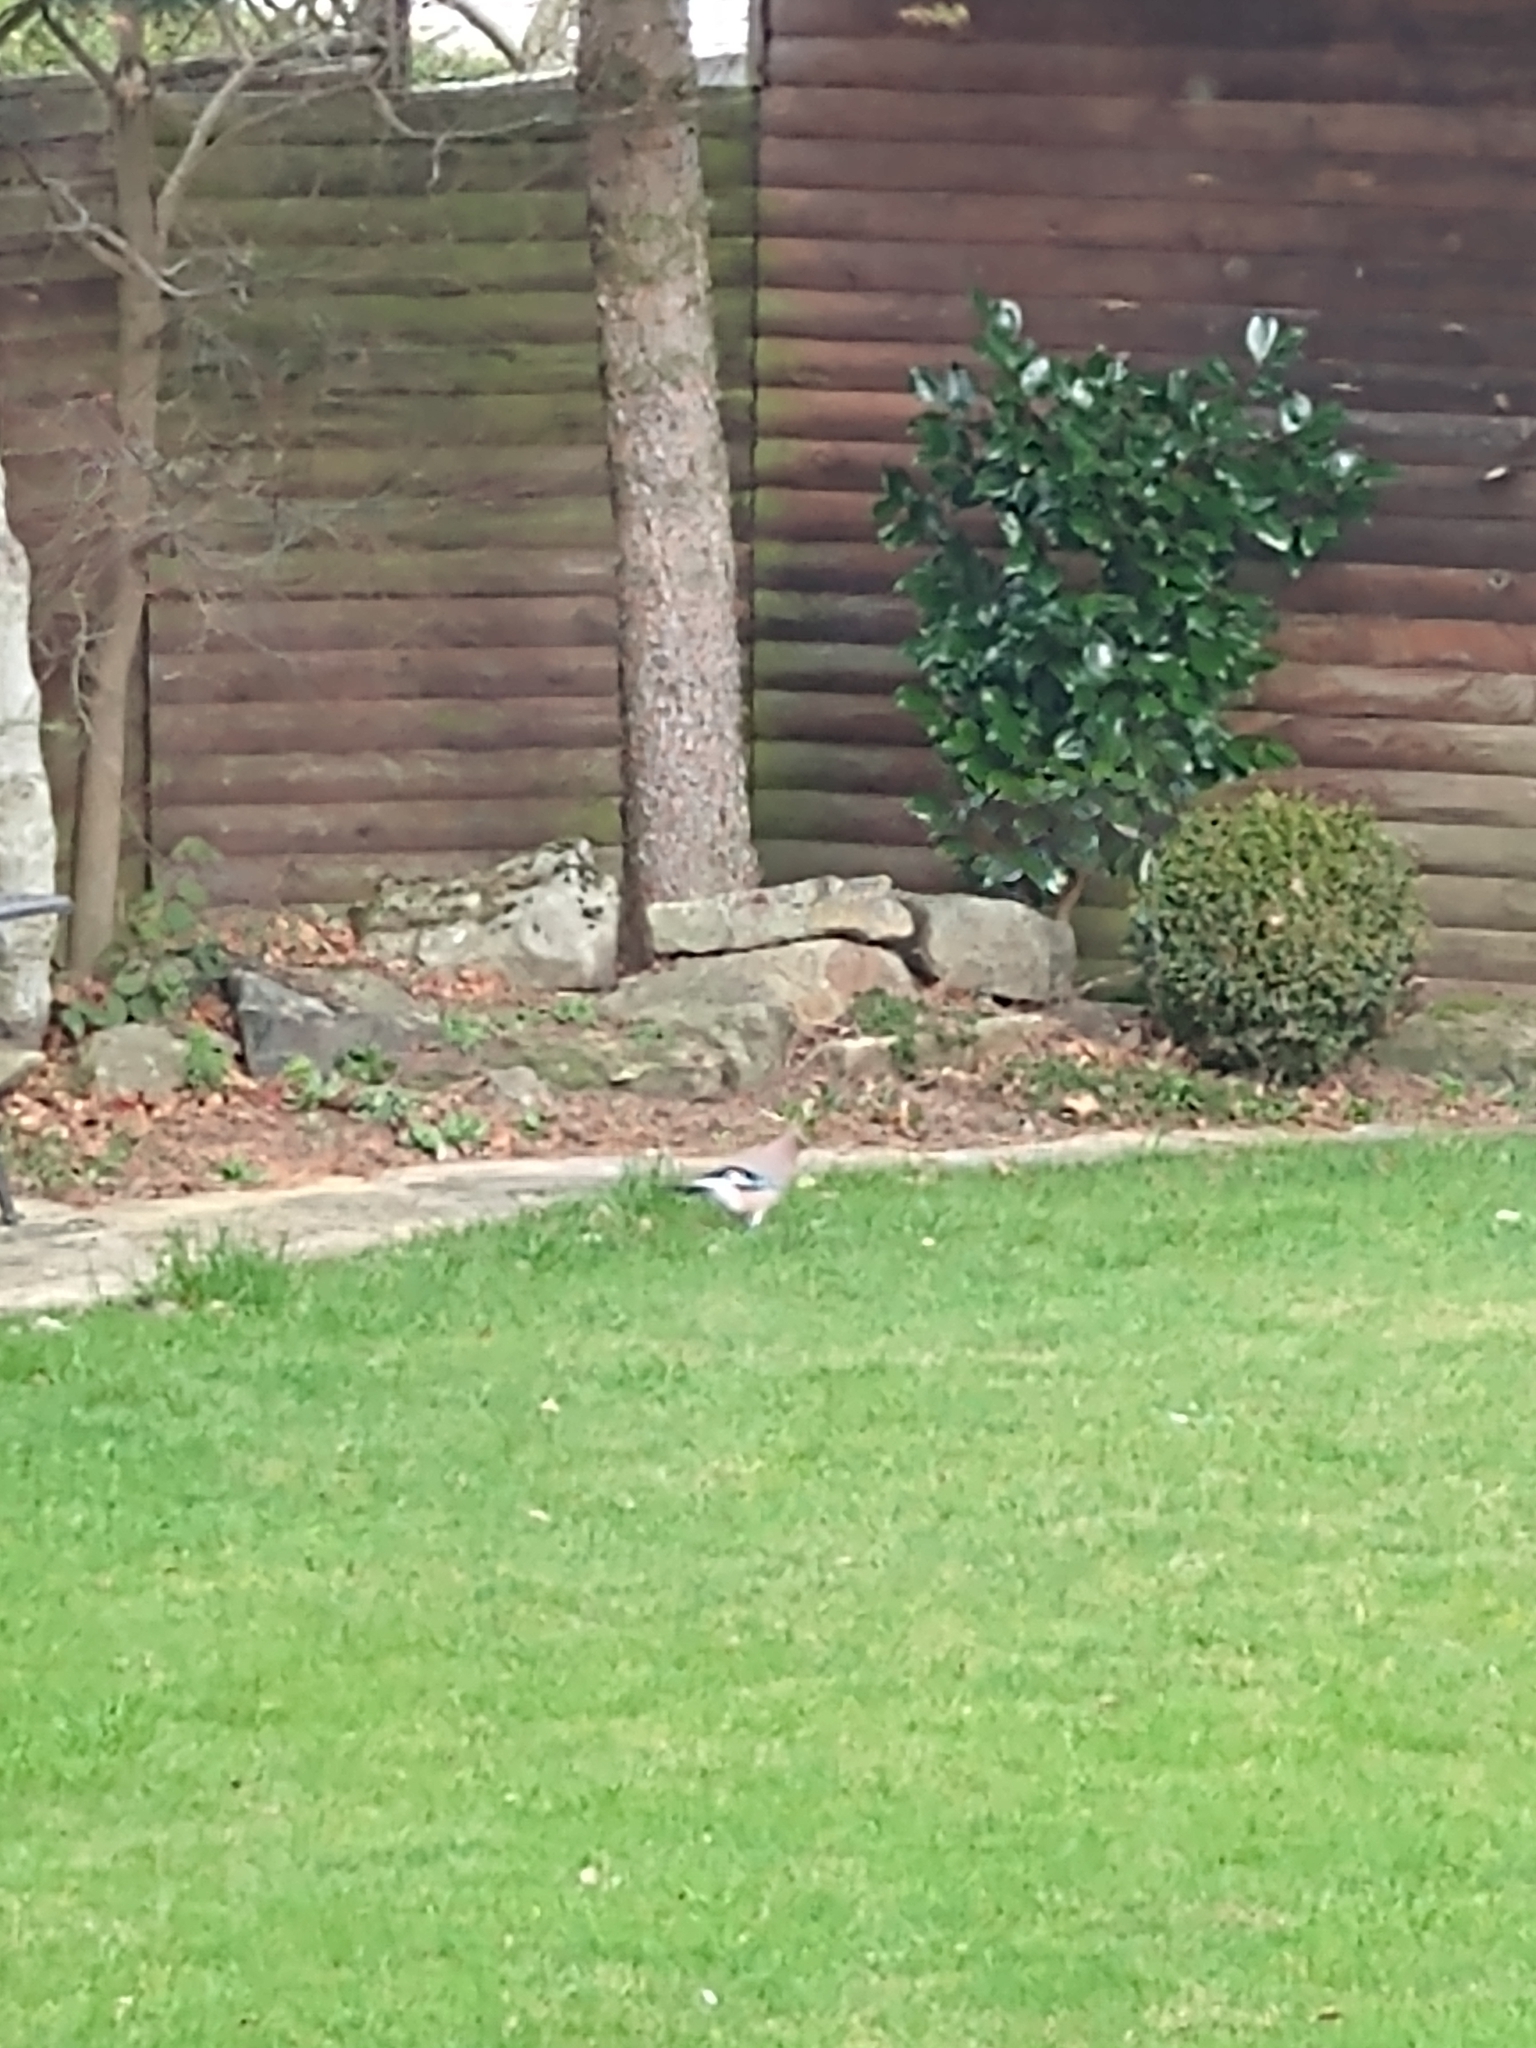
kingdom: Animalia
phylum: Chordata
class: Aves
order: Passeriformes
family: Corvidae
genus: Garrulus
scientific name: Garrulus glandarius
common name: Eurasian jay
